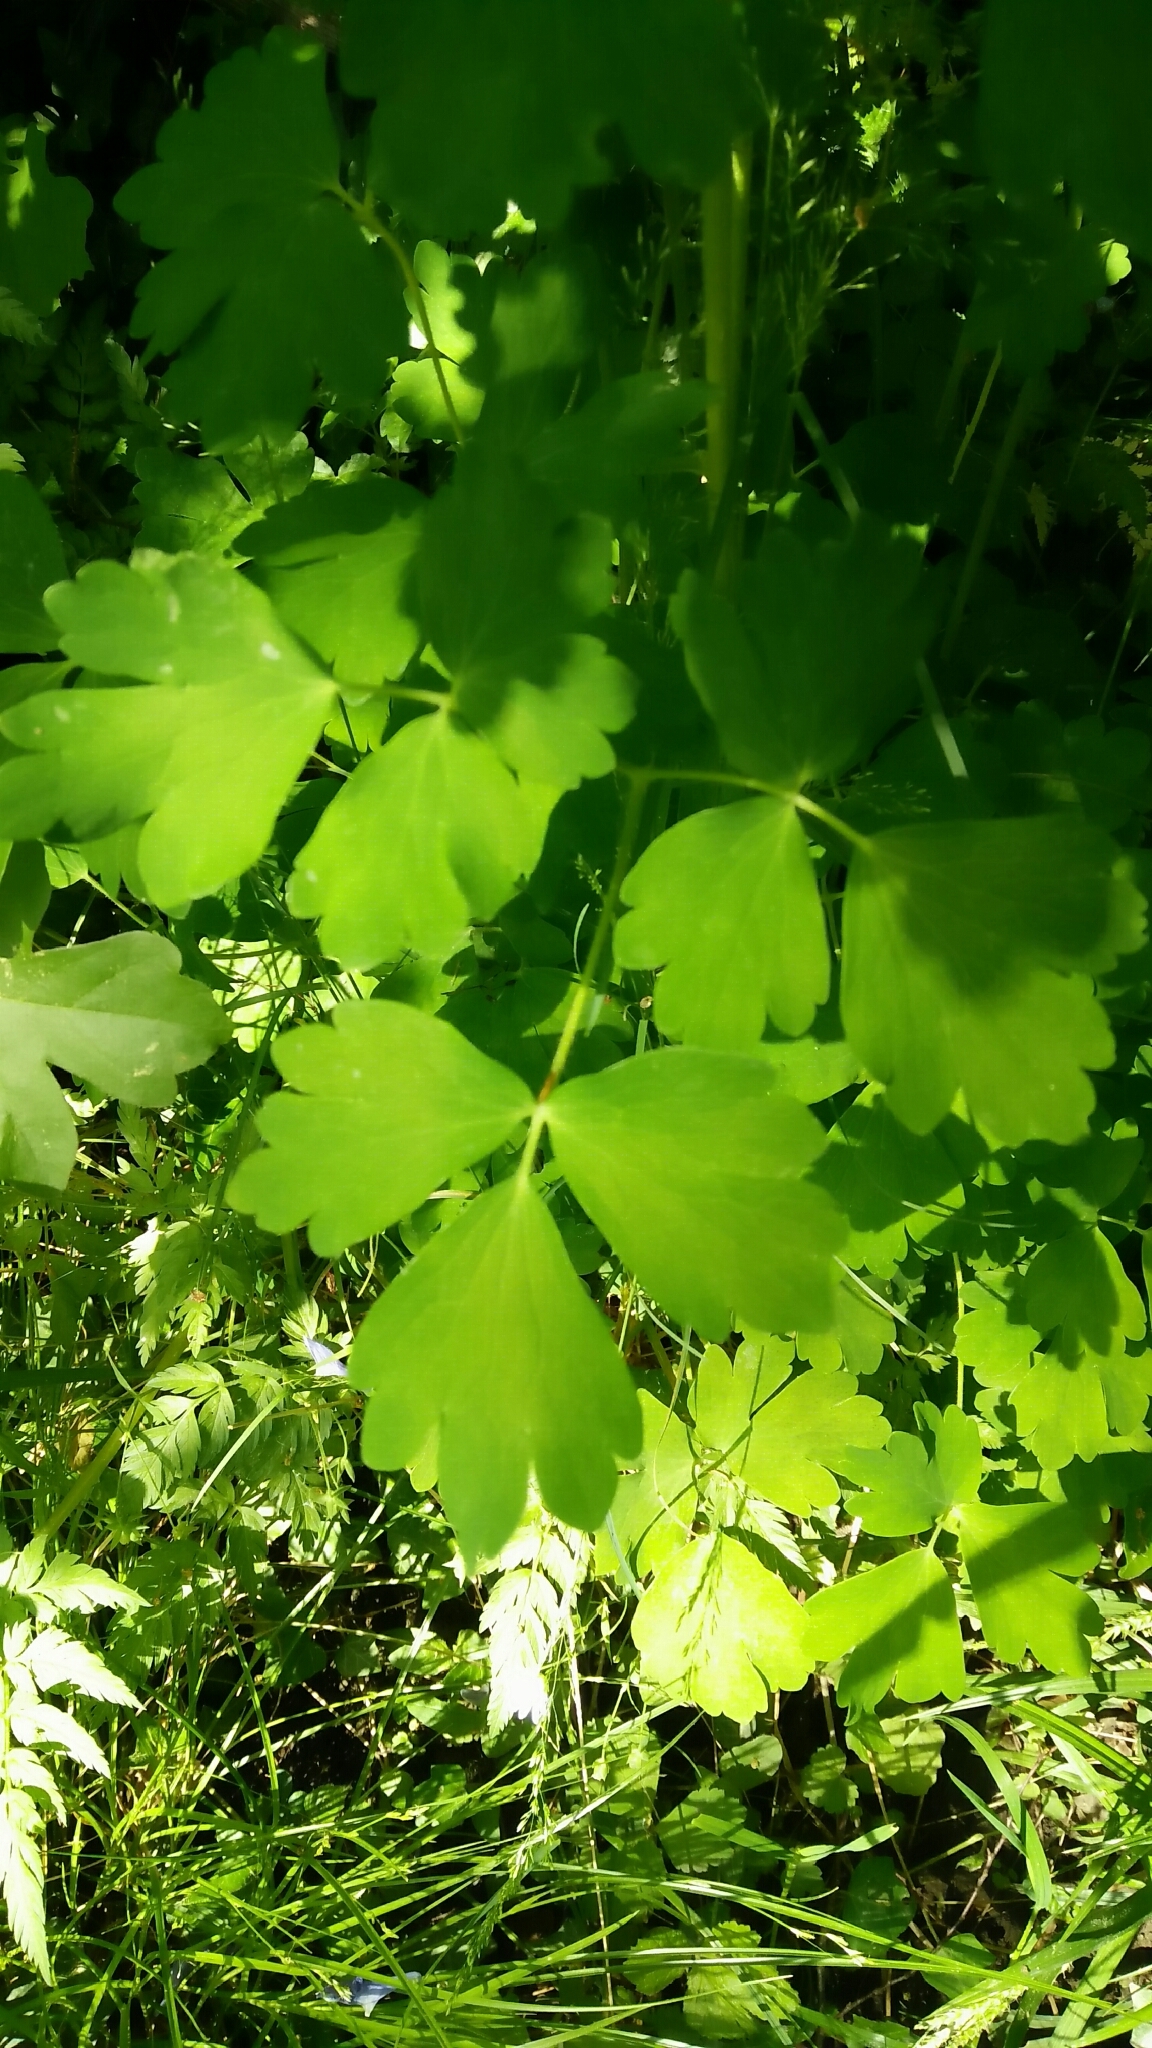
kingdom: Plantae
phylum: Tracheophyta
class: Magnoliopsida
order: Ranunculales
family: Ranunculaceae
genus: Aquilegia
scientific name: Aquilegia vulgaris
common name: Columbine
